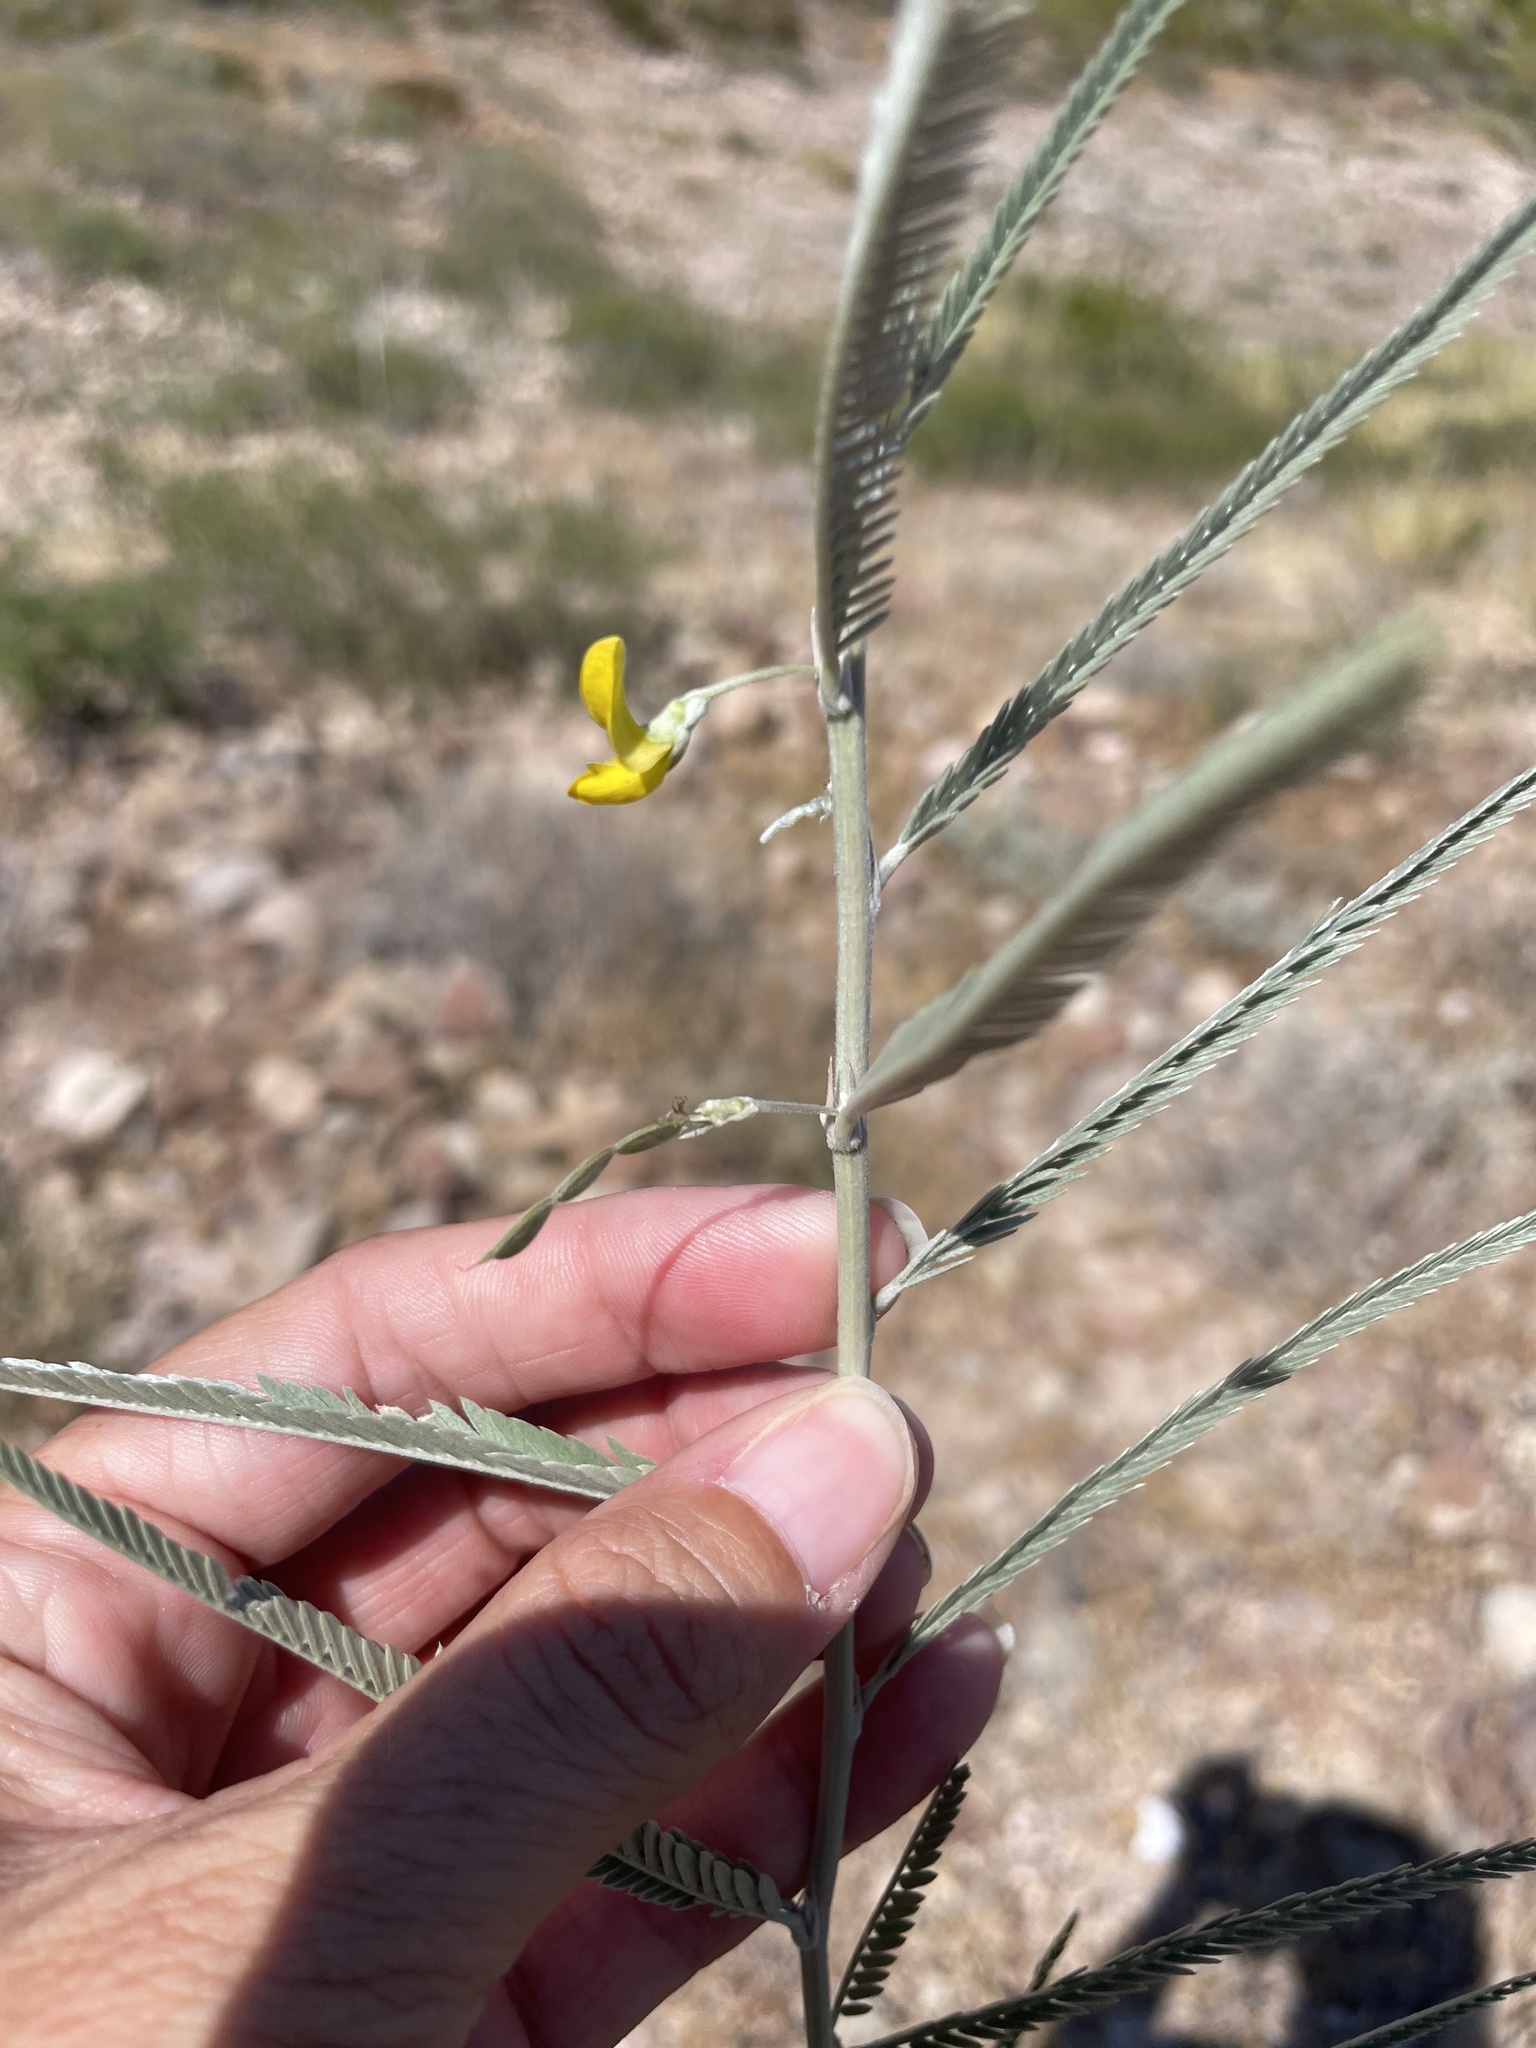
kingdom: Plantae
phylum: Tracheophyta
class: Magnoliopsida
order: Fabales
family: Fabaceae
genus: Ctenodon
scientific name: Ctenodon niveus
